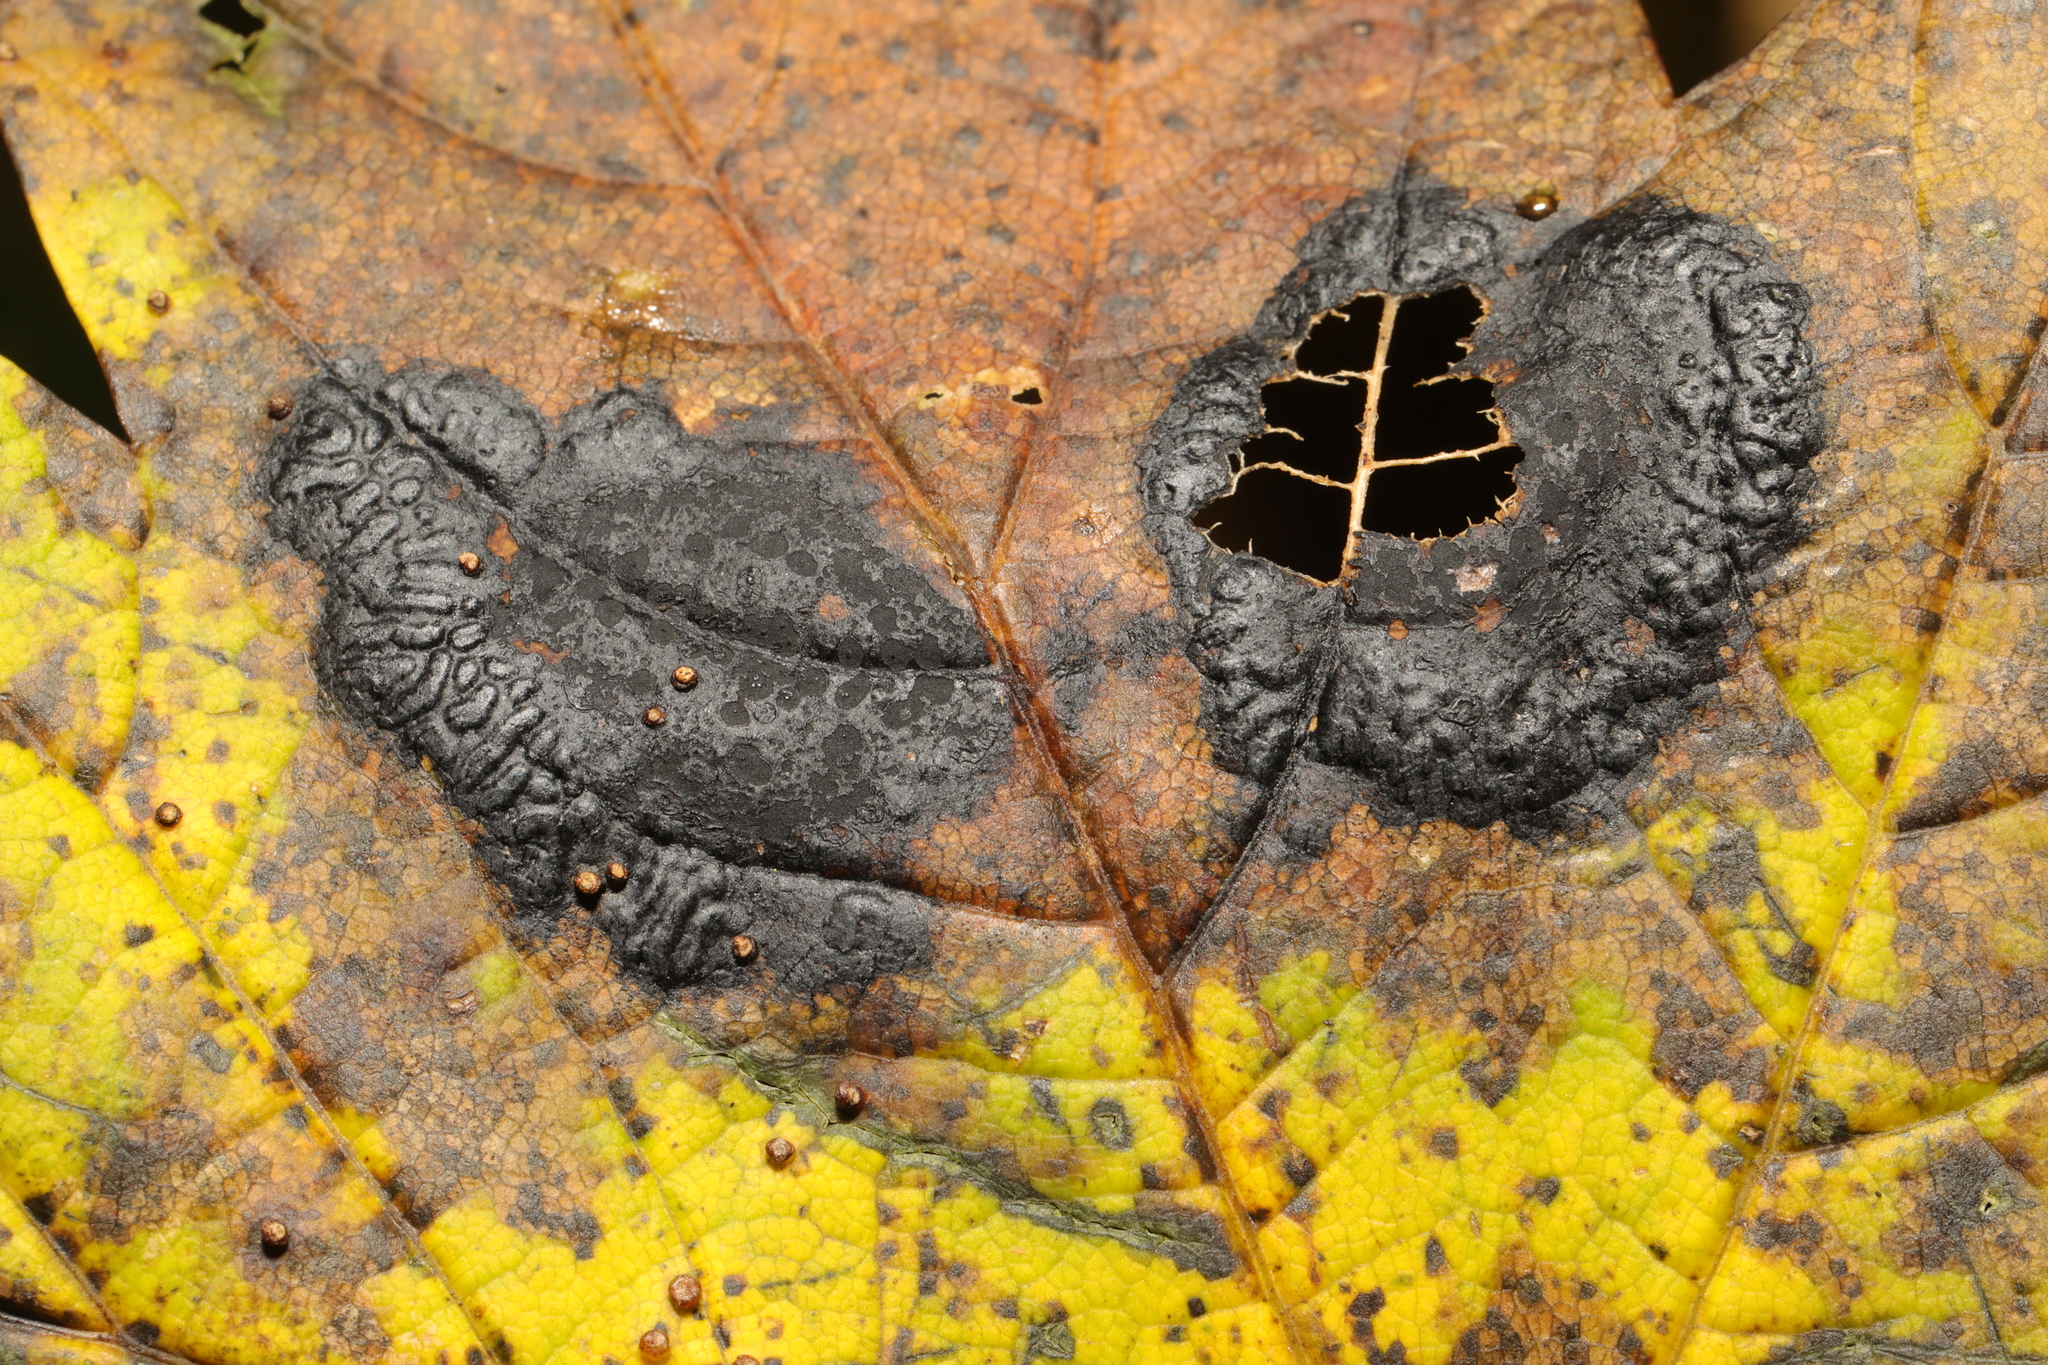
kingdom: Fungi
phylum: Ascomycota
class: Leotiomycetes
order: Rhytismatales
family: Rhytismataceae
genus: Rhytisma
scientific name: Rhytisma acerinum
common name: European tar spot
